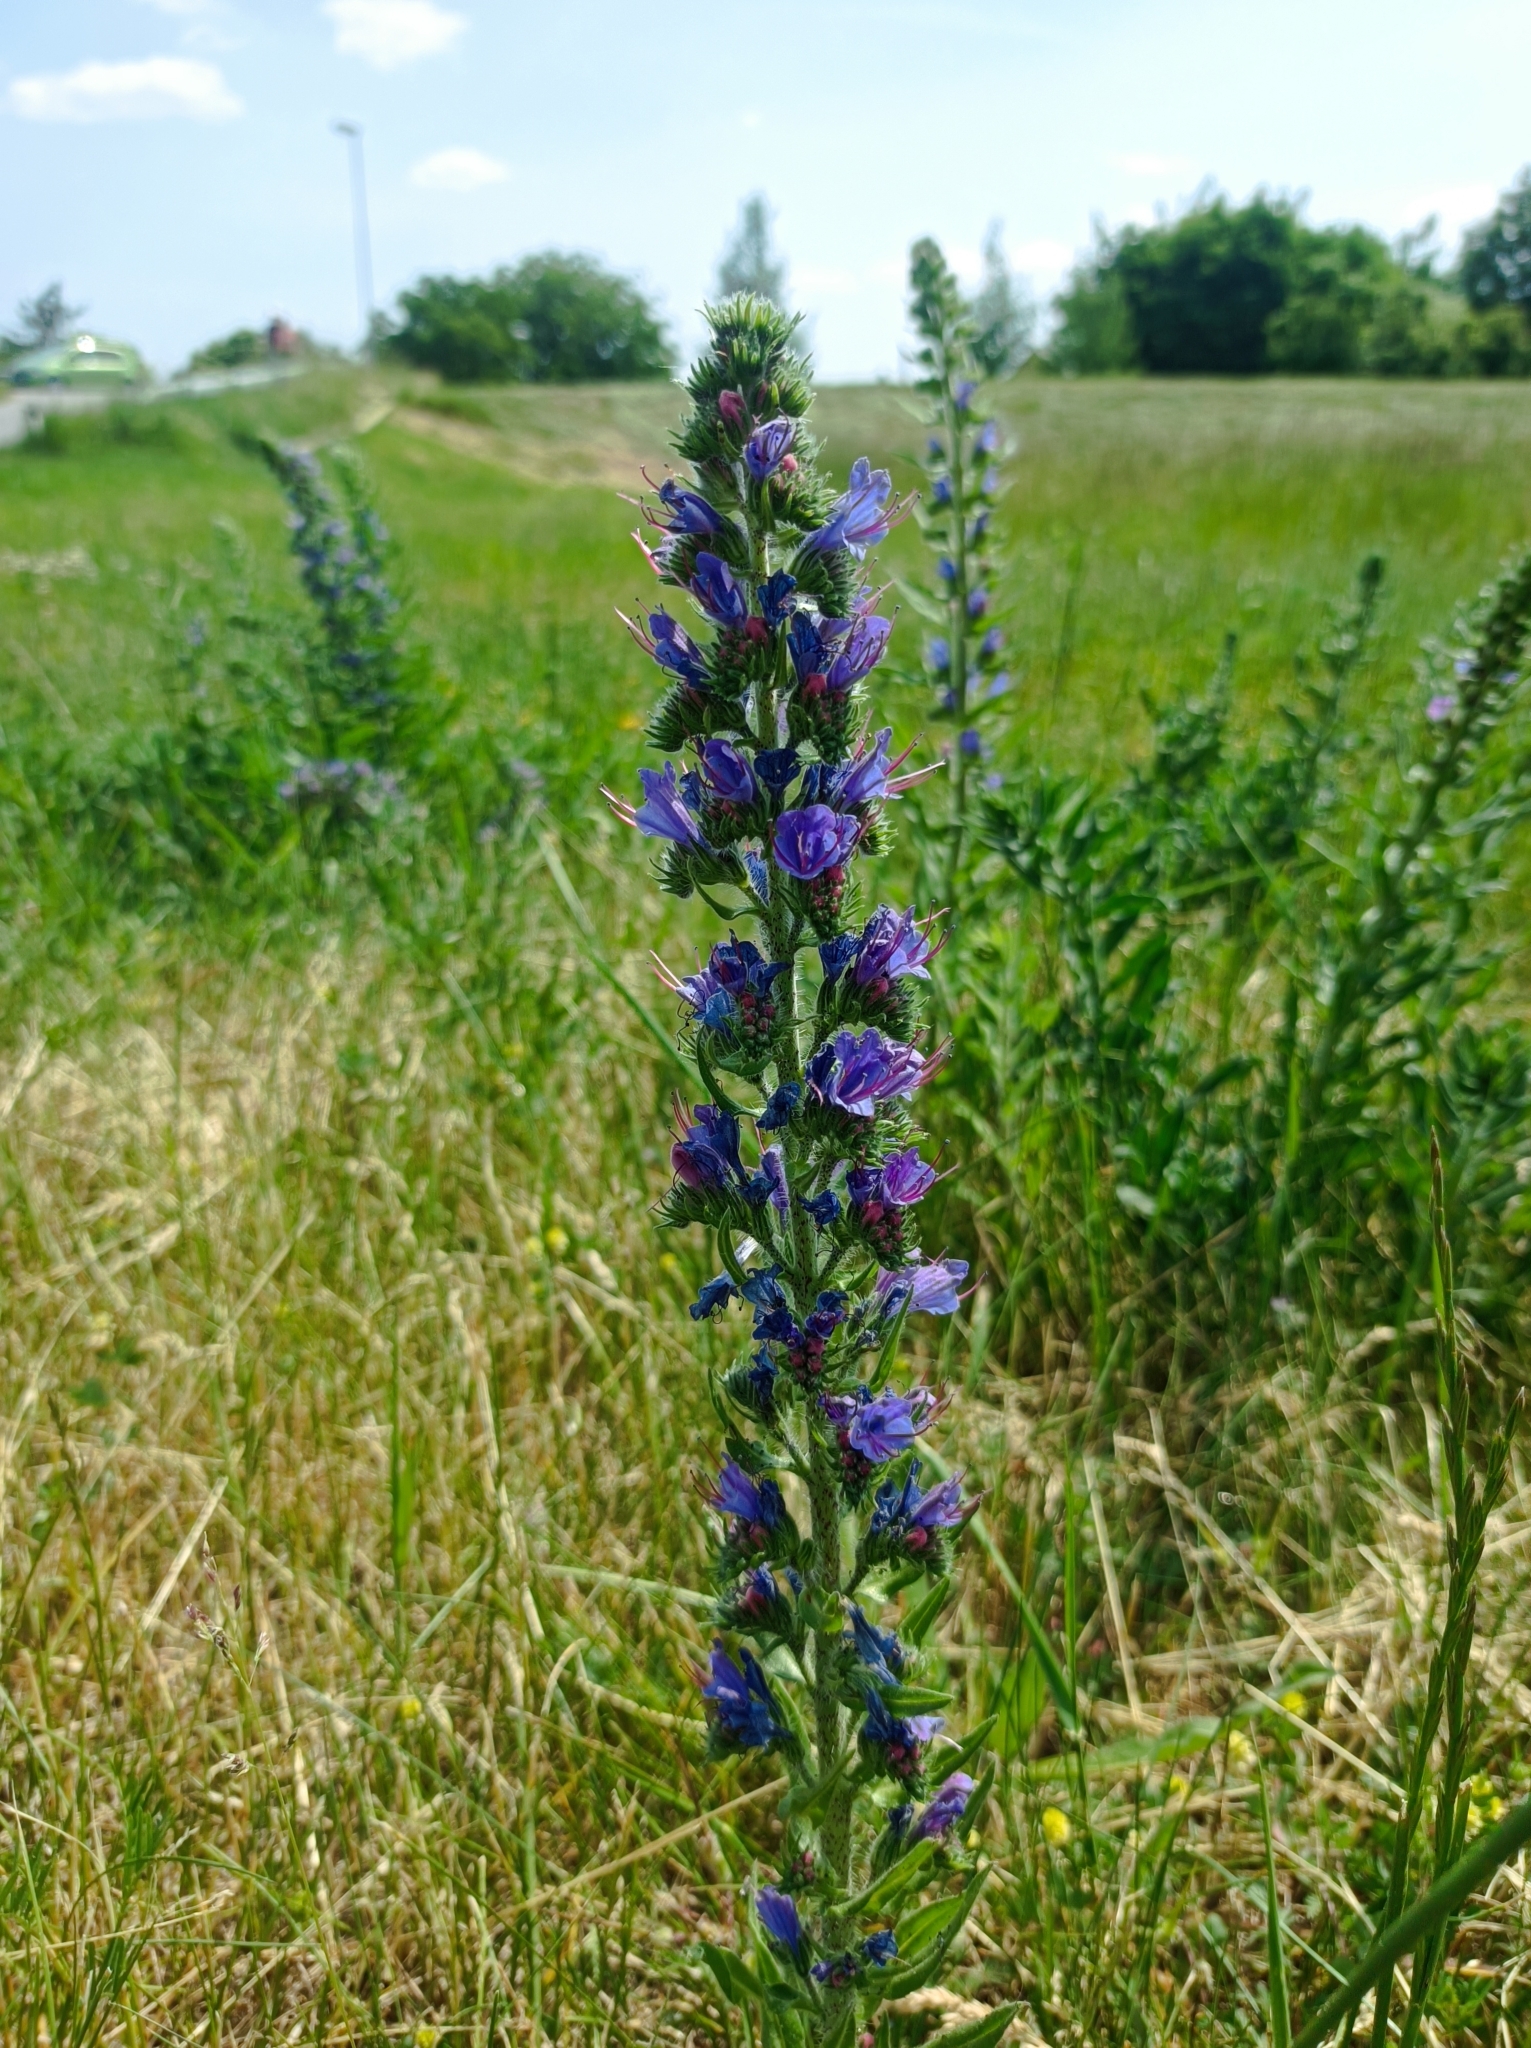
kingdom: Plantae
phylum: Tracheophyta
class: Magnoliopsida
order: Boraginales
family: Boraginaceae
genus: Echium
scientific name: Echium vulgare
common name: Common viper's bugloss
